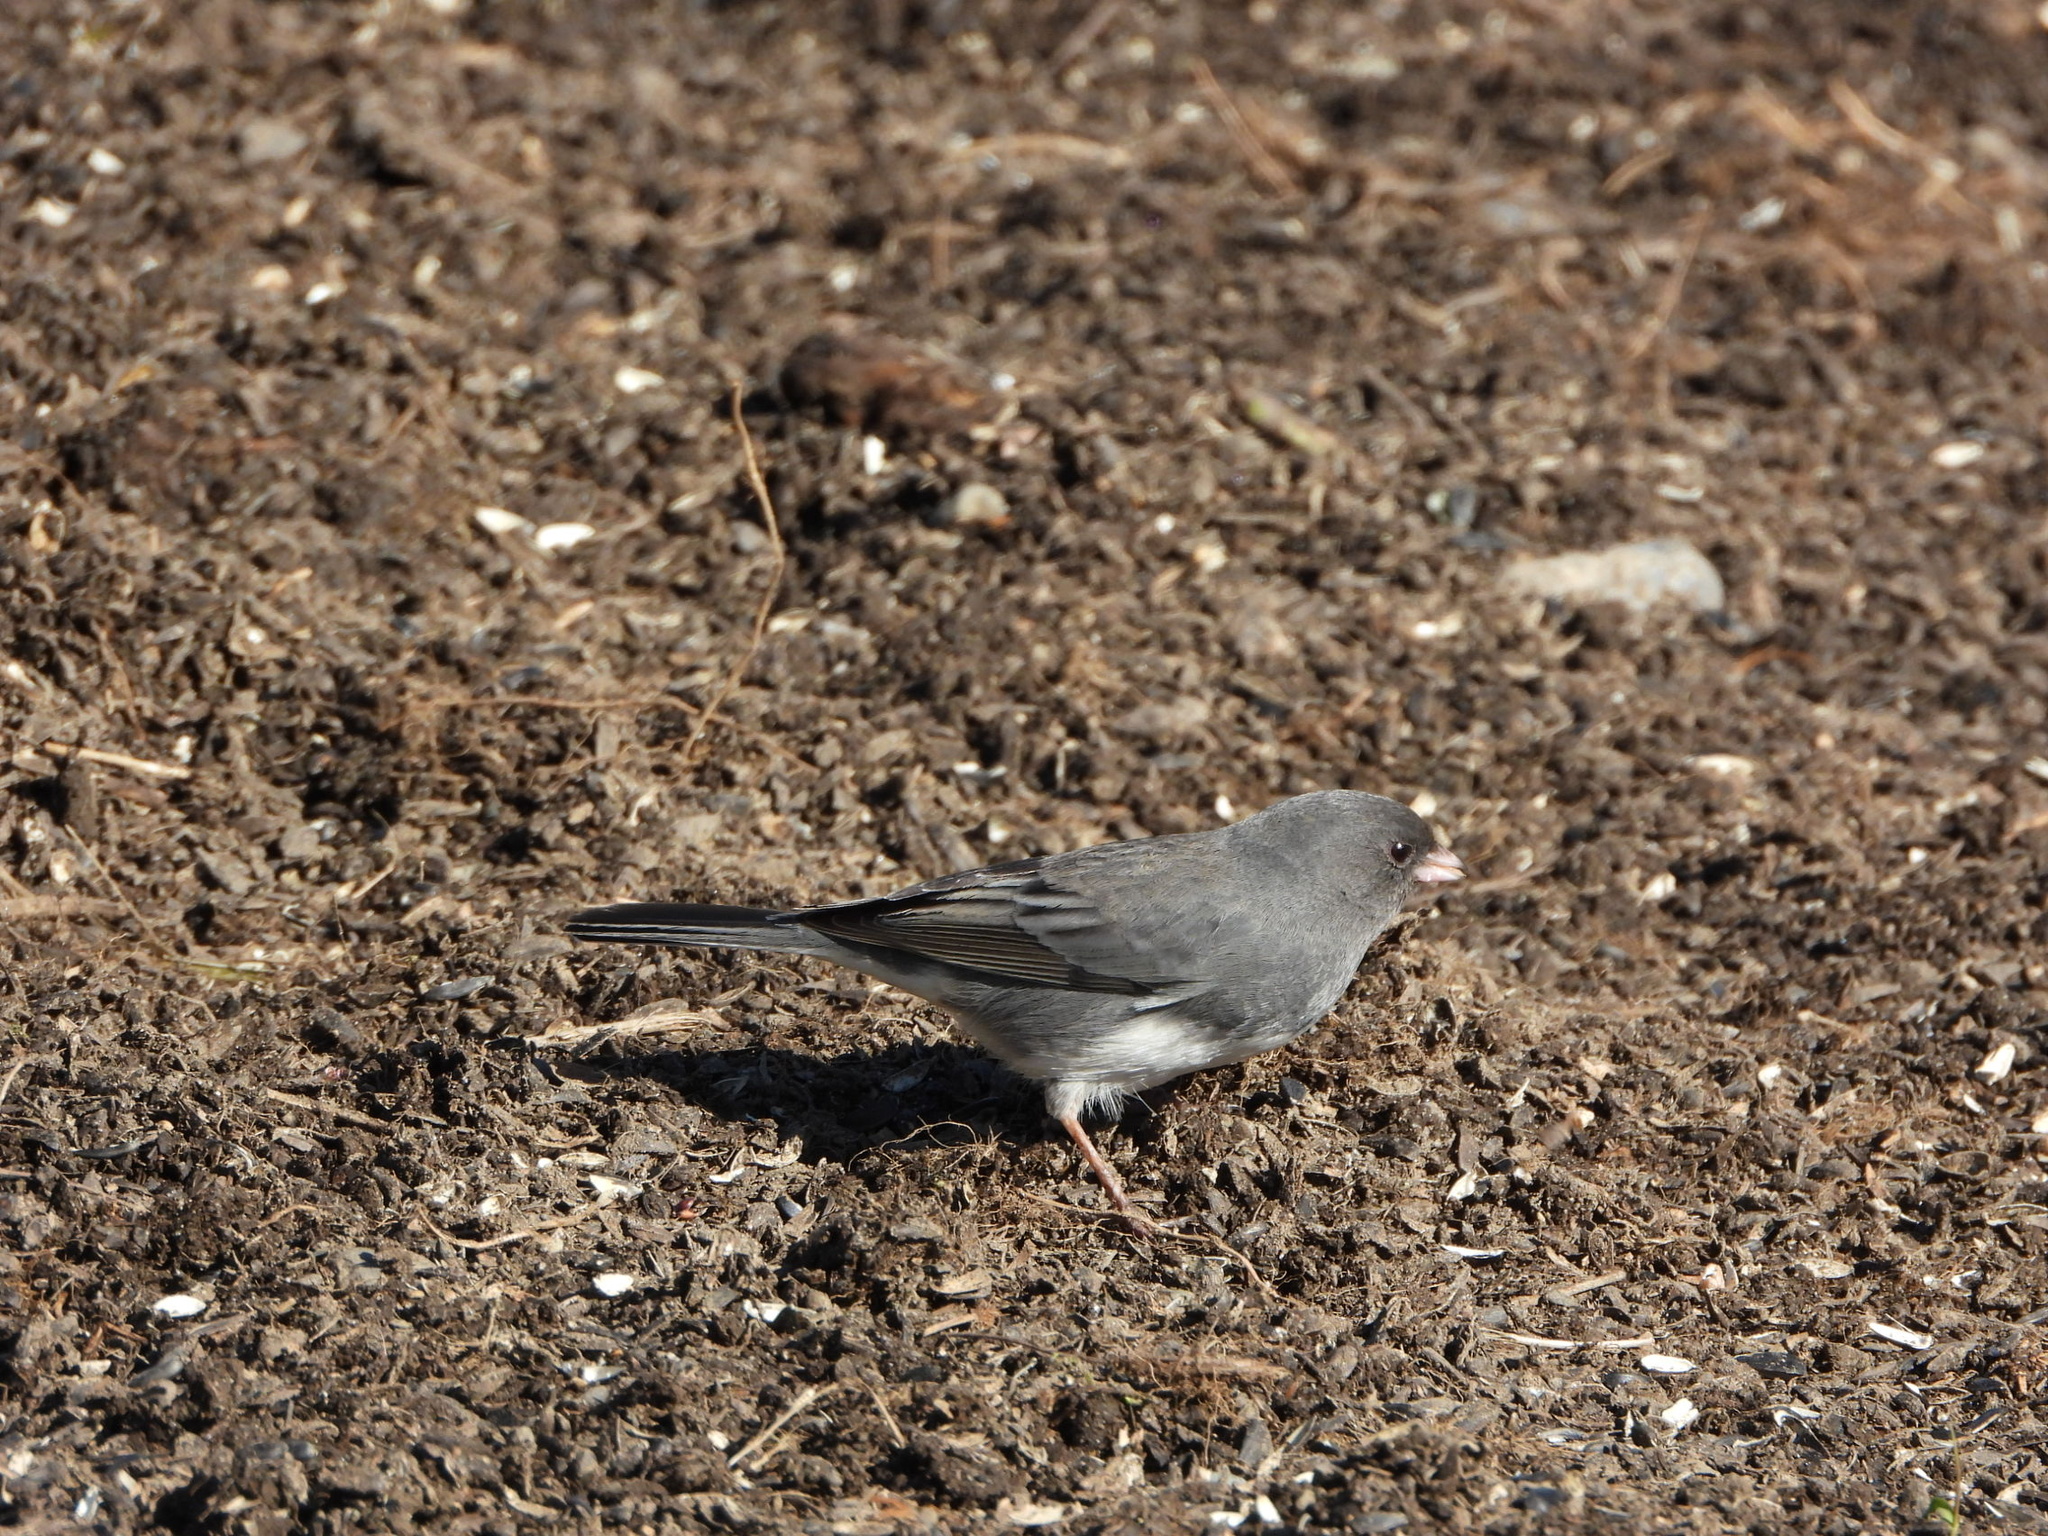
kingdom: Animalia
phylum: Chordata
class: Aves
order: Passeriformes
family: Passerellidae
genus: Junco
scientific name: Junco hyemalis
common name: Dark-eyed junco
